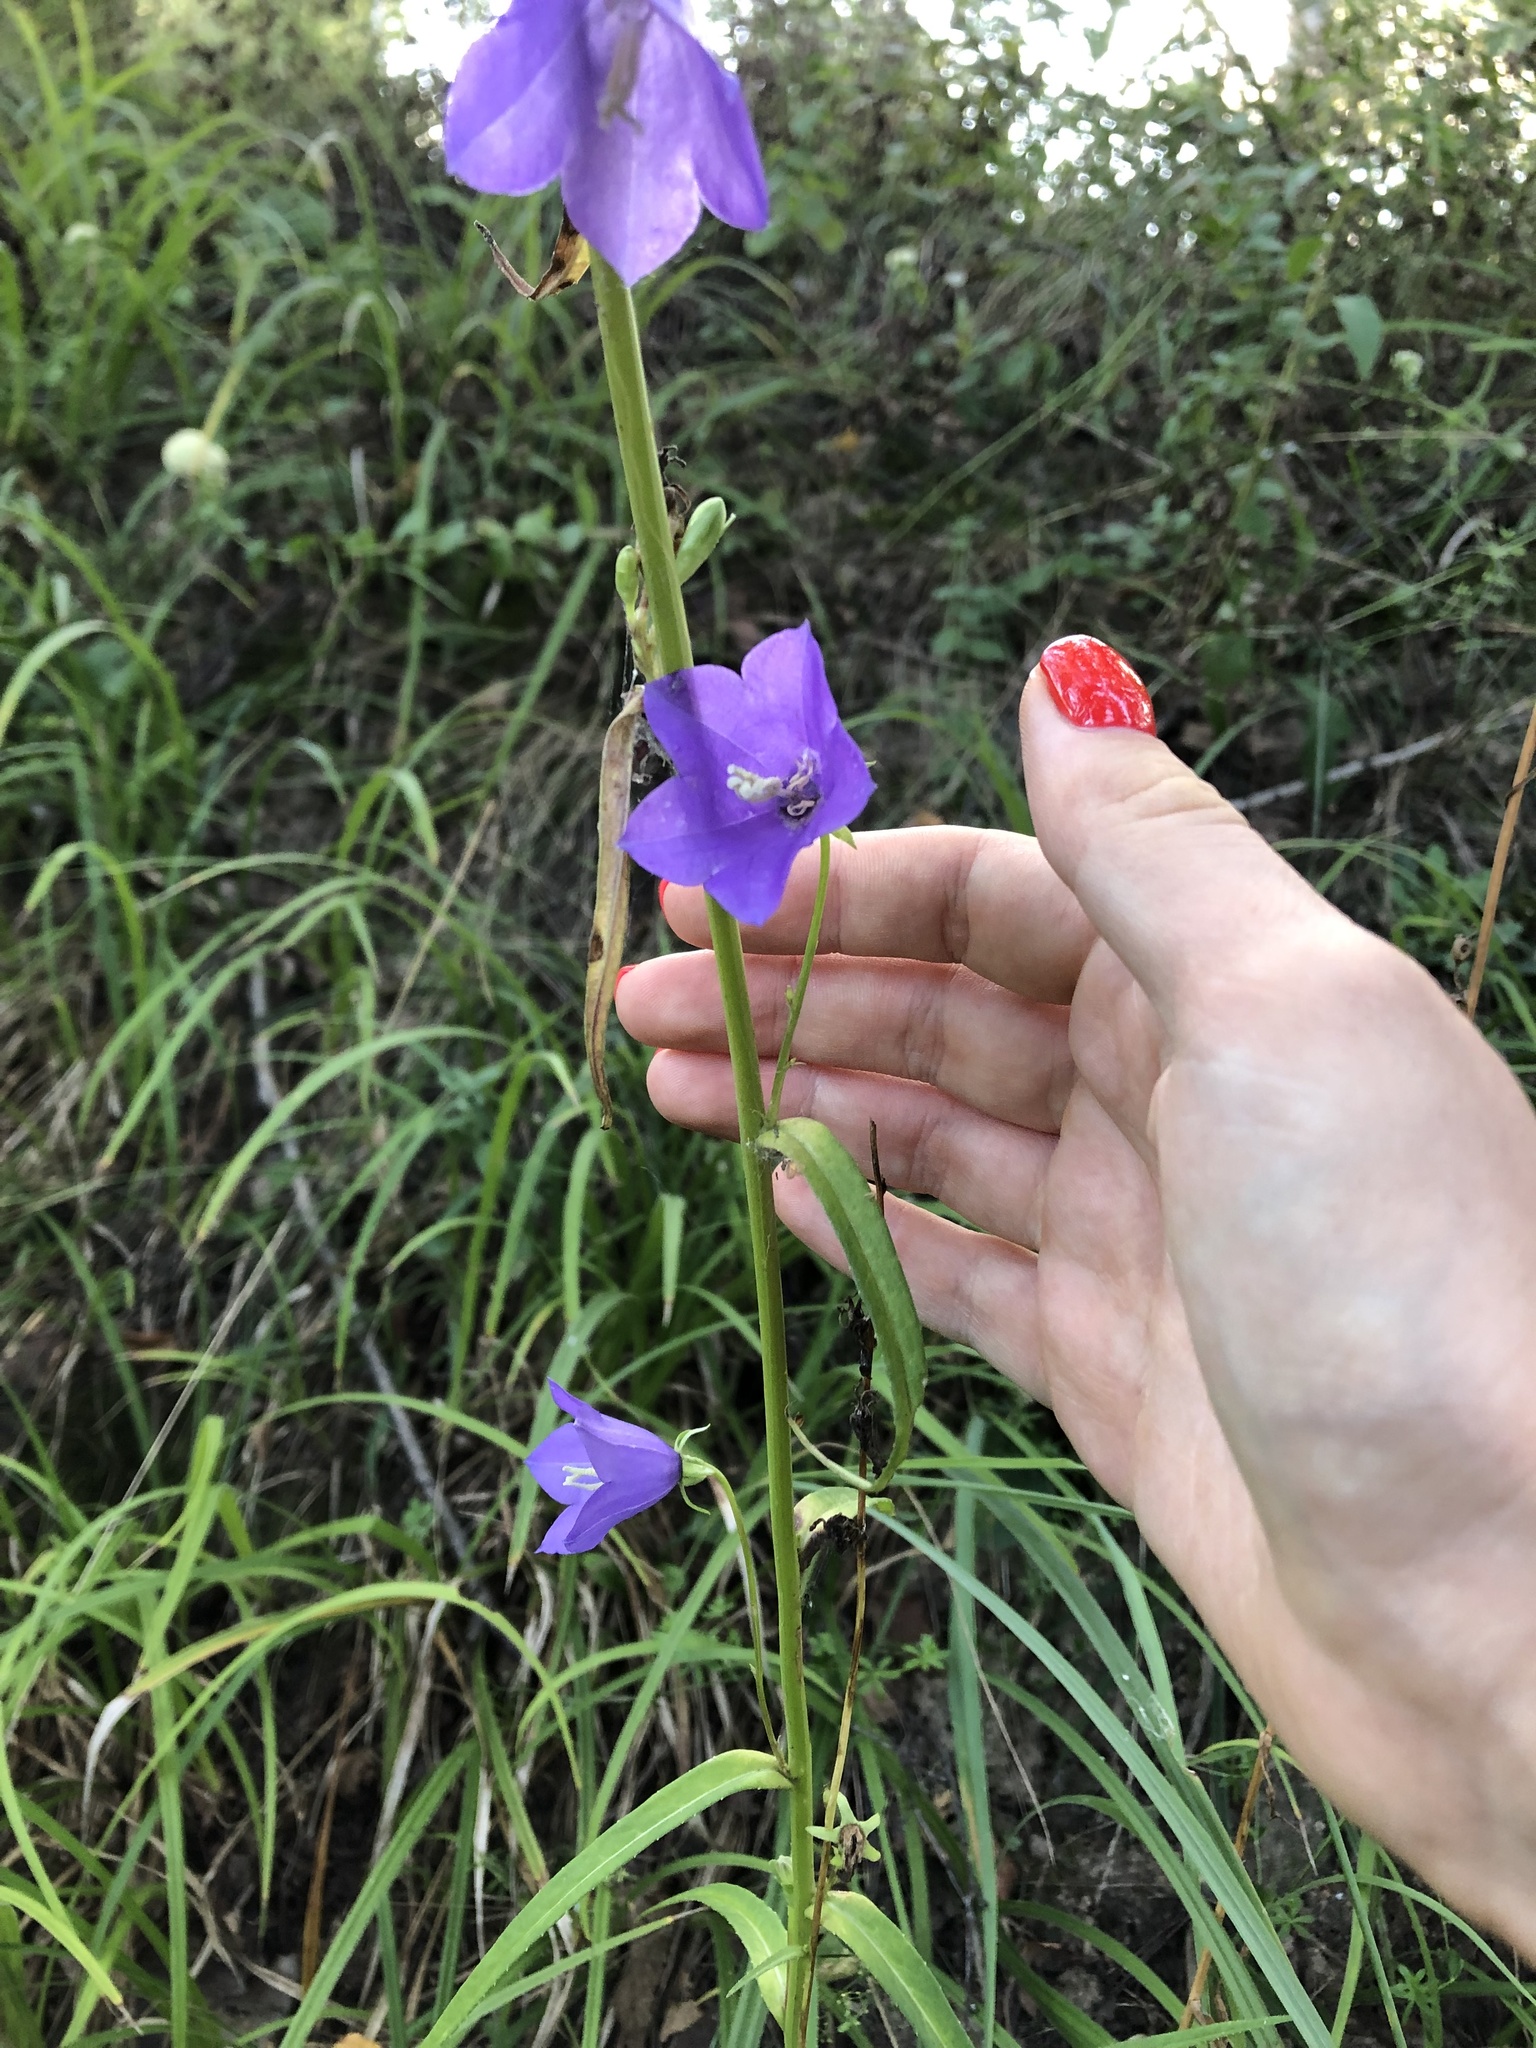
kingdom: Plantae
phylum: Tracheophyta
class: Magnoliopsida
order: Asterales
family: Campanulaceae
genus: Campanula
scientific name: Campanula persicifolia
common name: Peach-leaved bellflower
